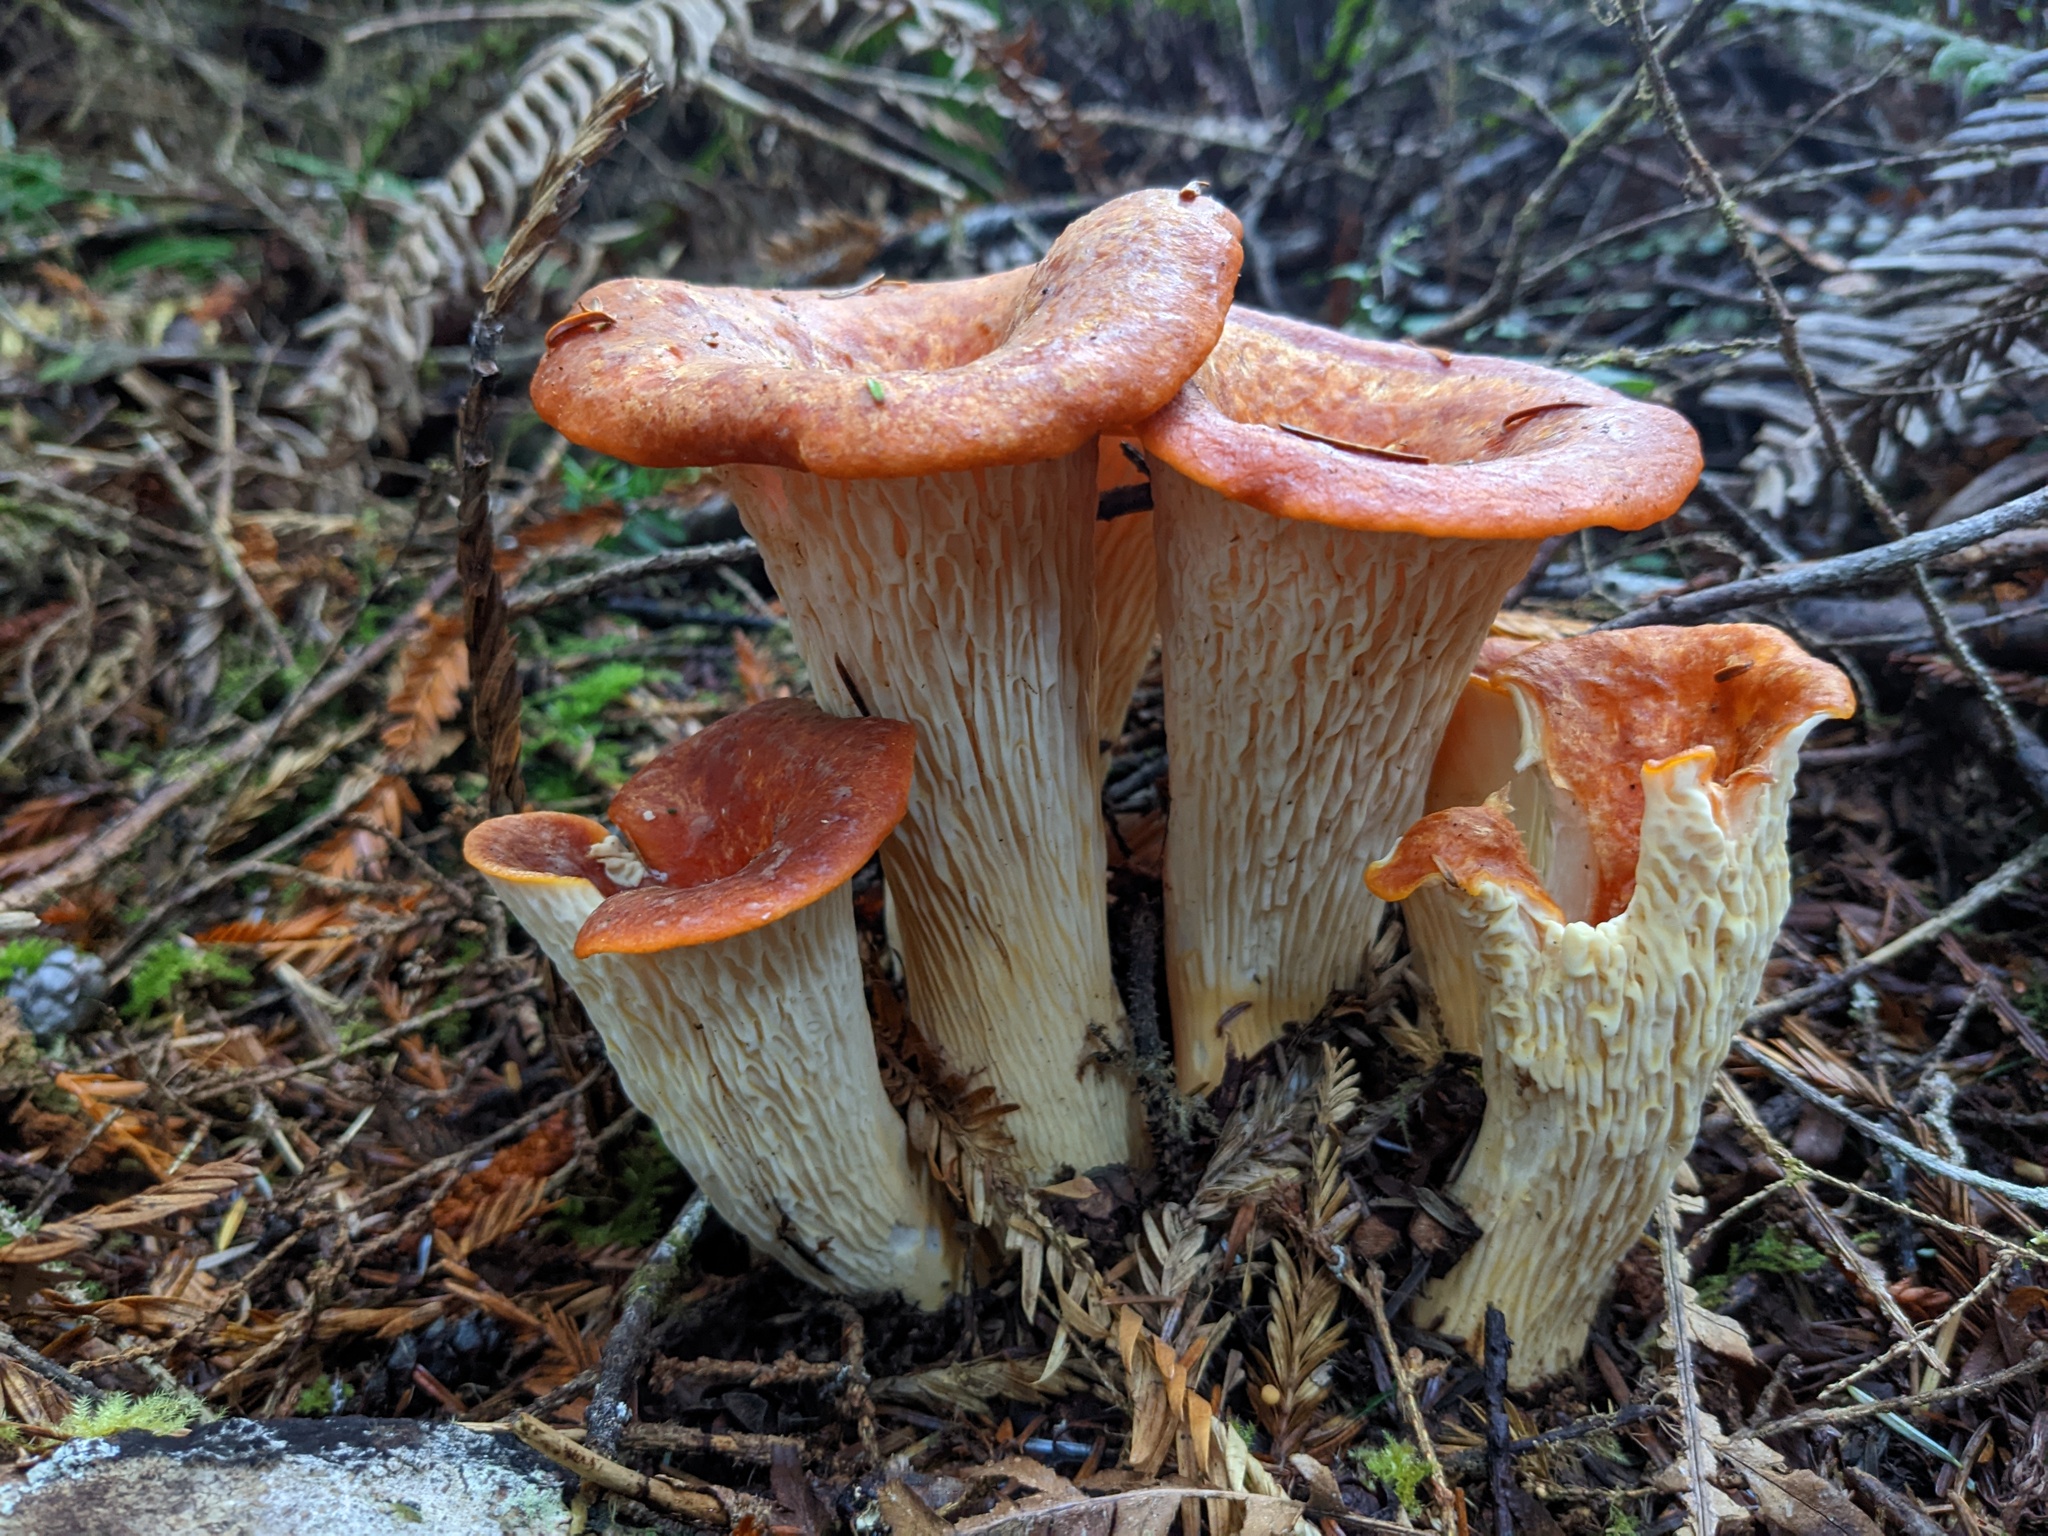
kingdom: Fungi
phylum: Basidiomycota
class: Agaricomycetes
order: Gomphales
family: Gomphaceae
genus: Turbinellus
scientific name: Turbinellus floccosus
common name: Scaly chanterelle
